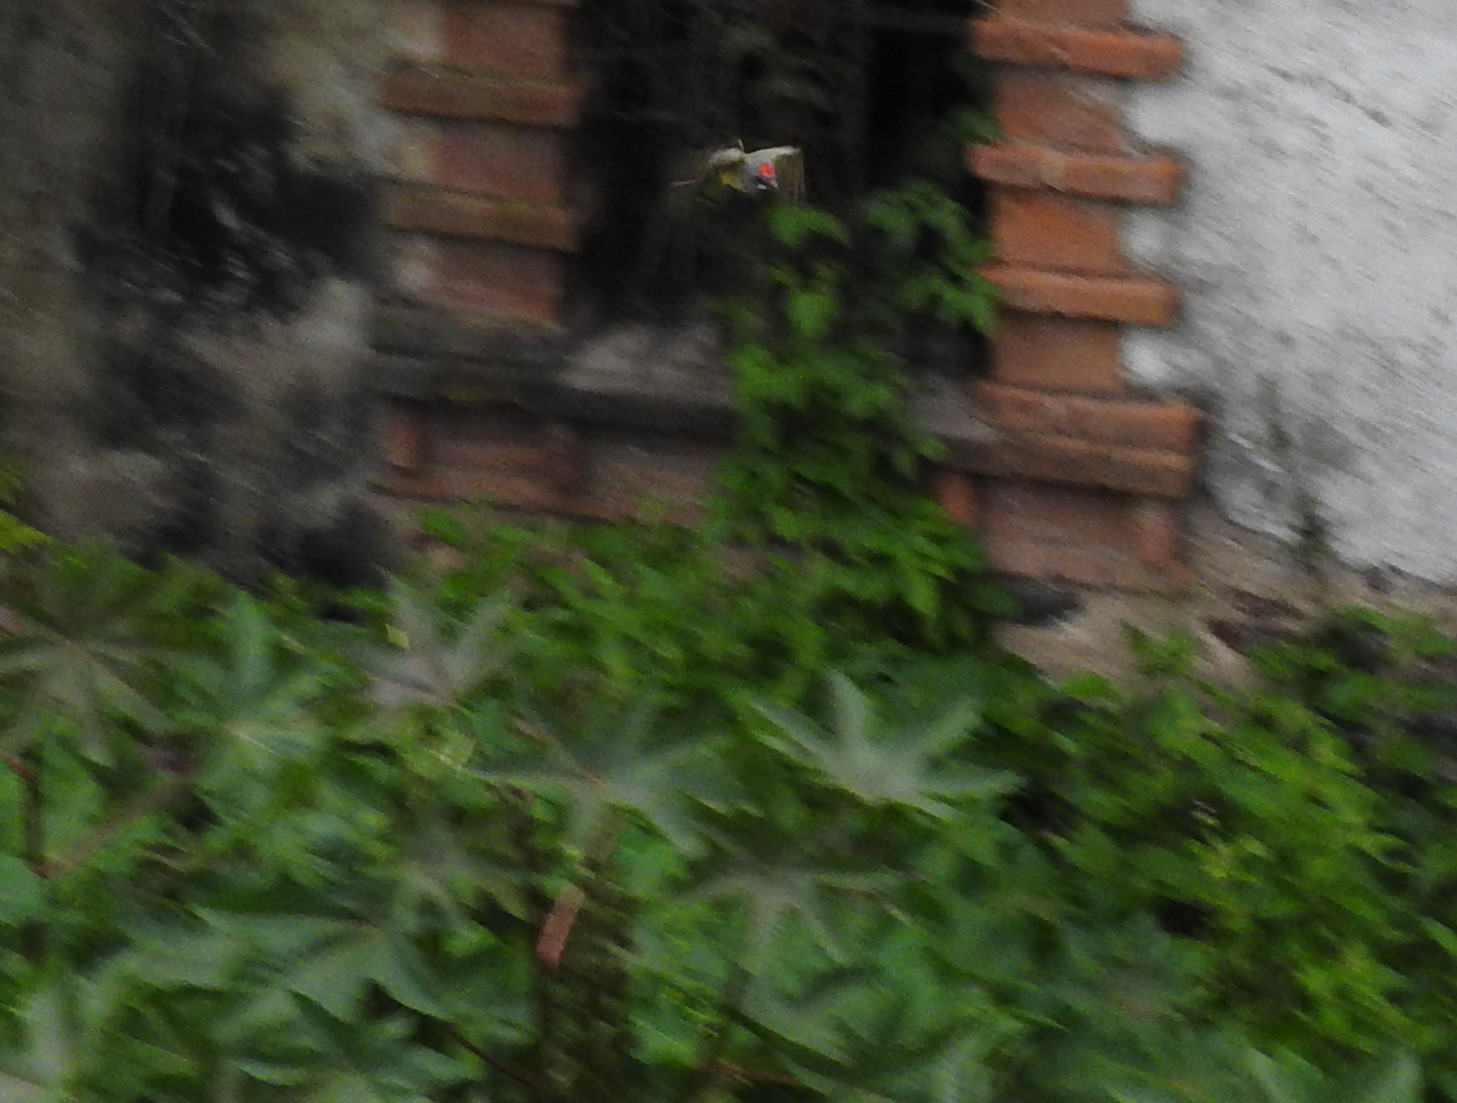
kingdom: Animalia
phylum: Chordata
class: Aves
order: Passeriformes
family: Tyrannidae
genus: Tyrannus
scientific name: Tyrannus vociferans
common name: Cassin's kingbird
